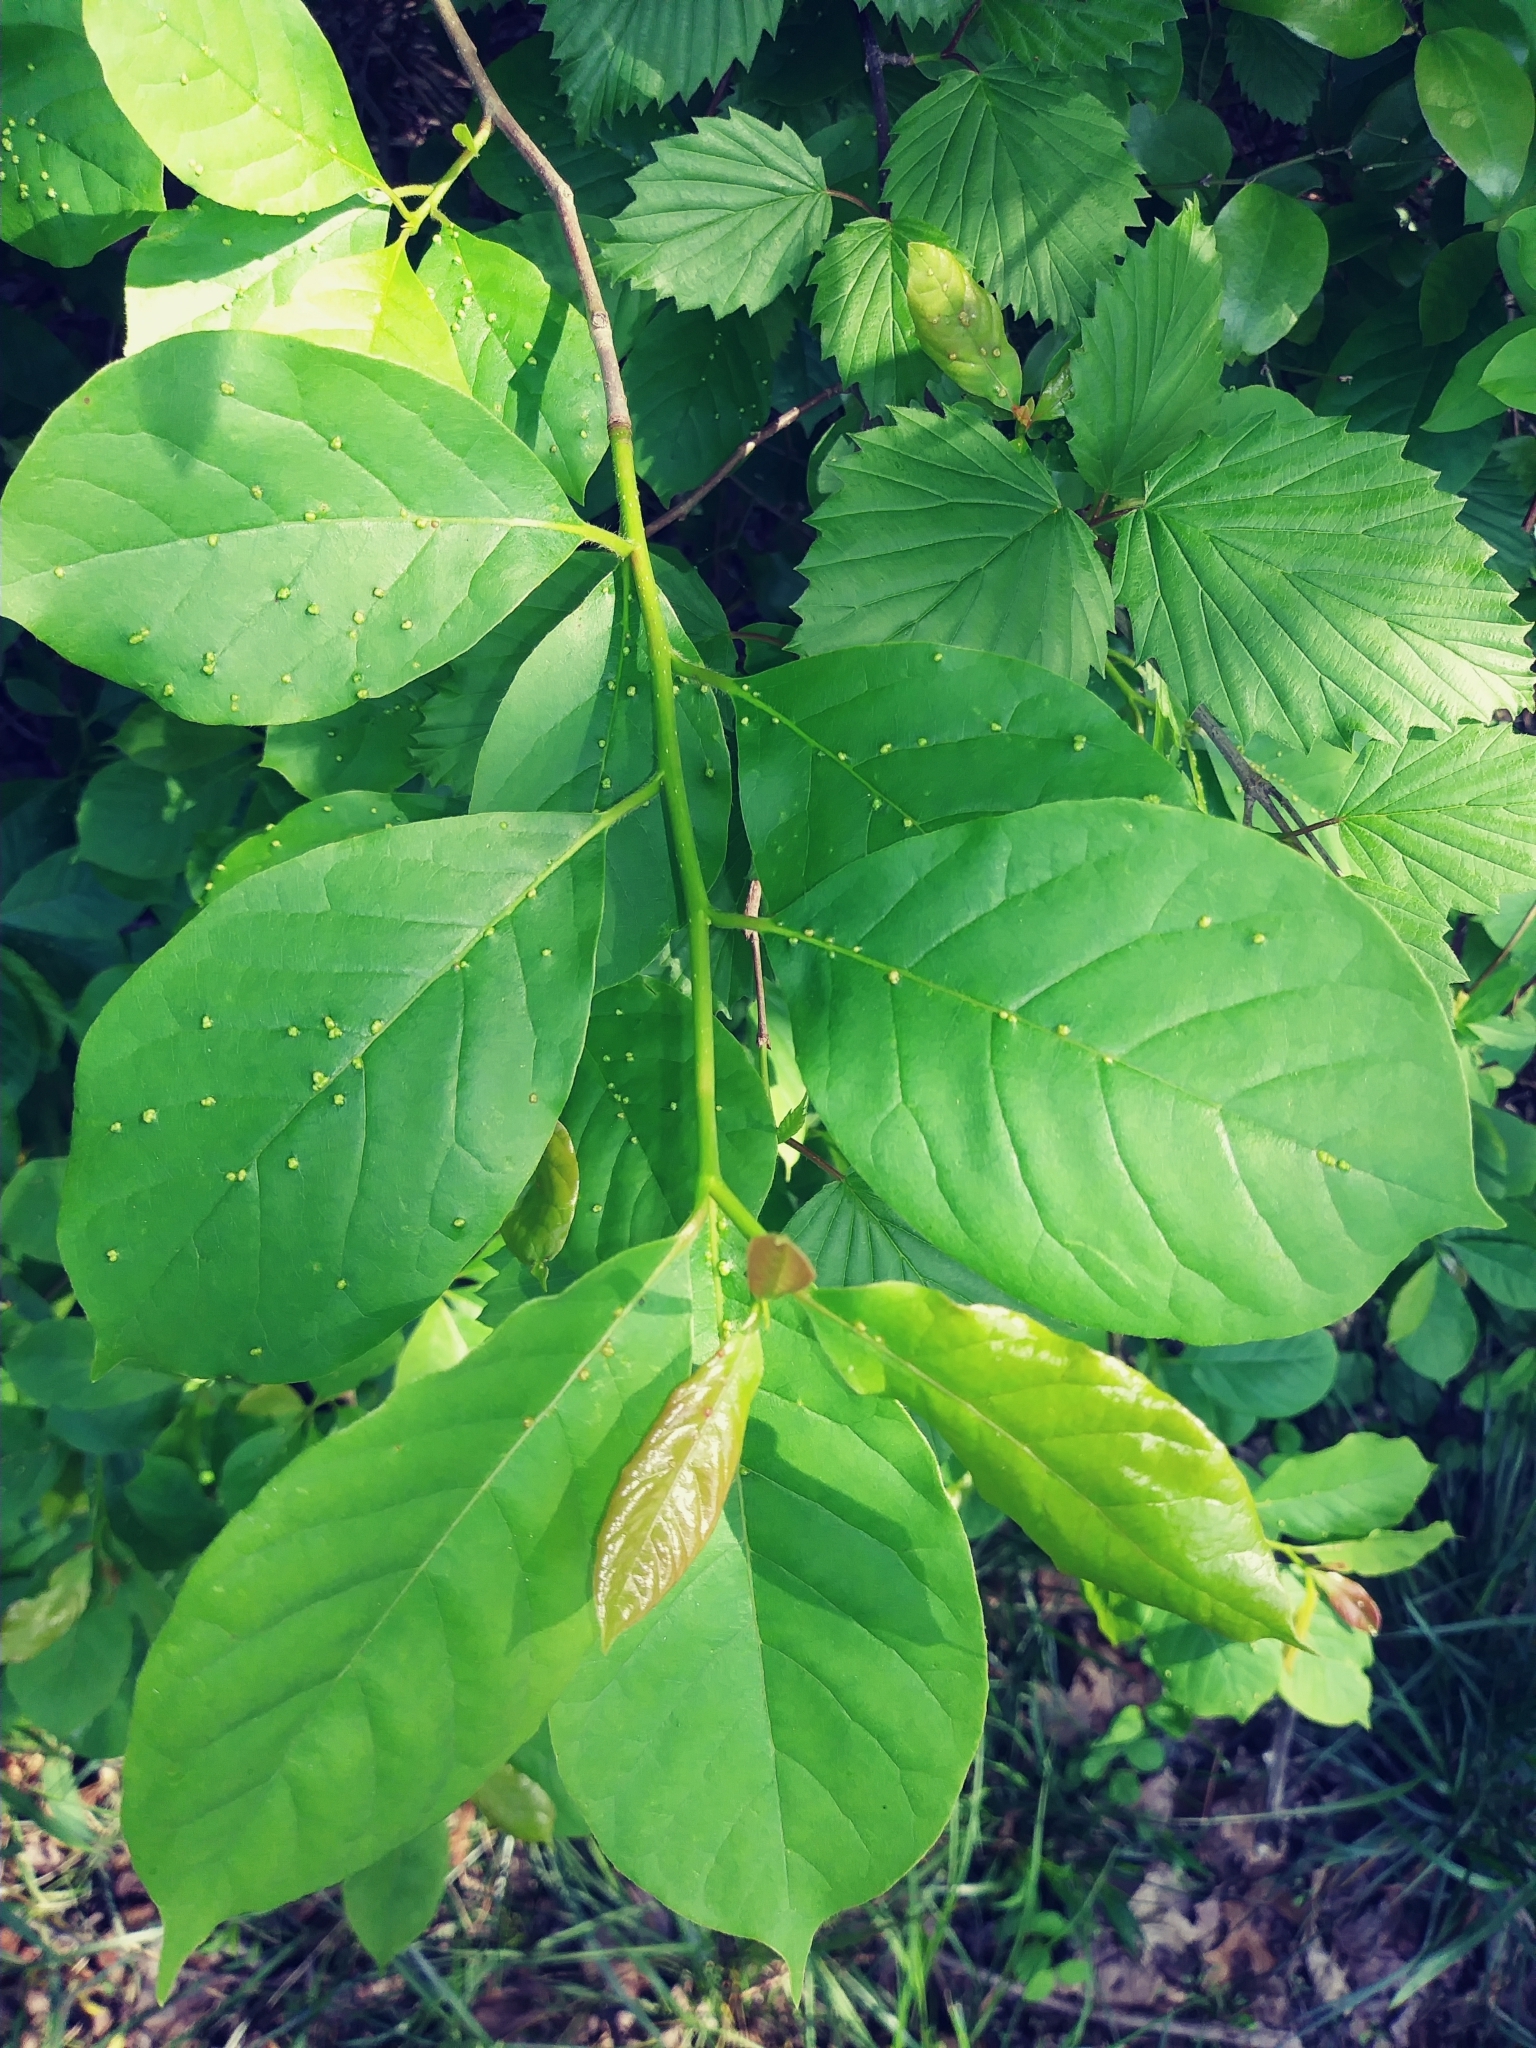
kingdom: Animalia
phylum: Arthropoda
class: Arachnida
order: Trombidiformes
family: Eriophyidae
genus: Aceria
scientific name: Aceria
